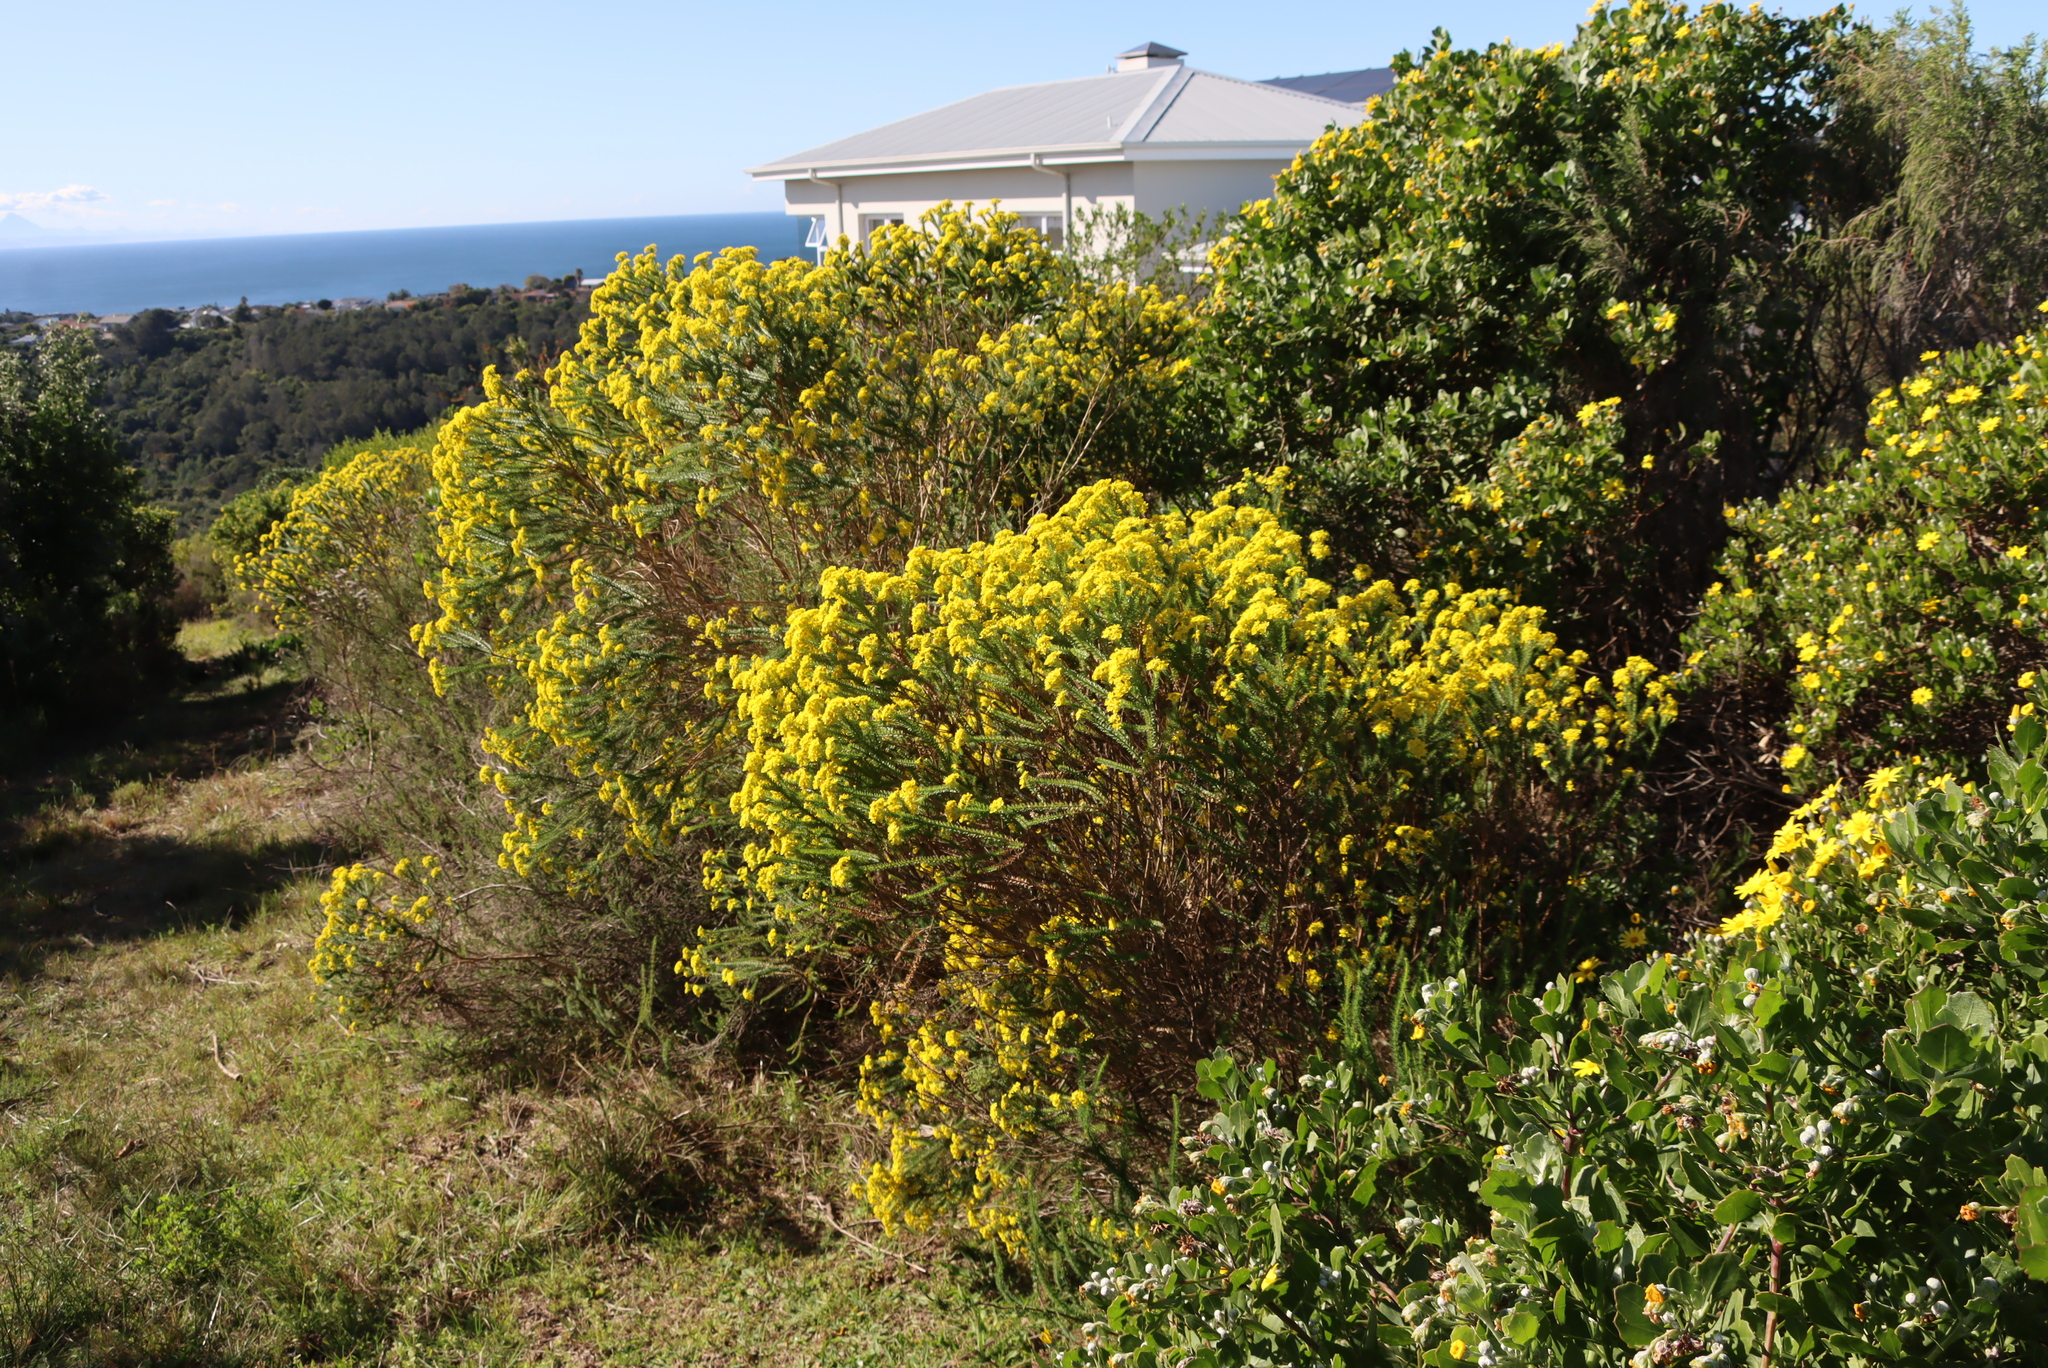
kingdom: Plantae
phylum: Tracheophyta
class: Magnoliopsida
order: Asterales
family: Asteraceae
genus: Euryops
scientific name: Euryops virgineus
